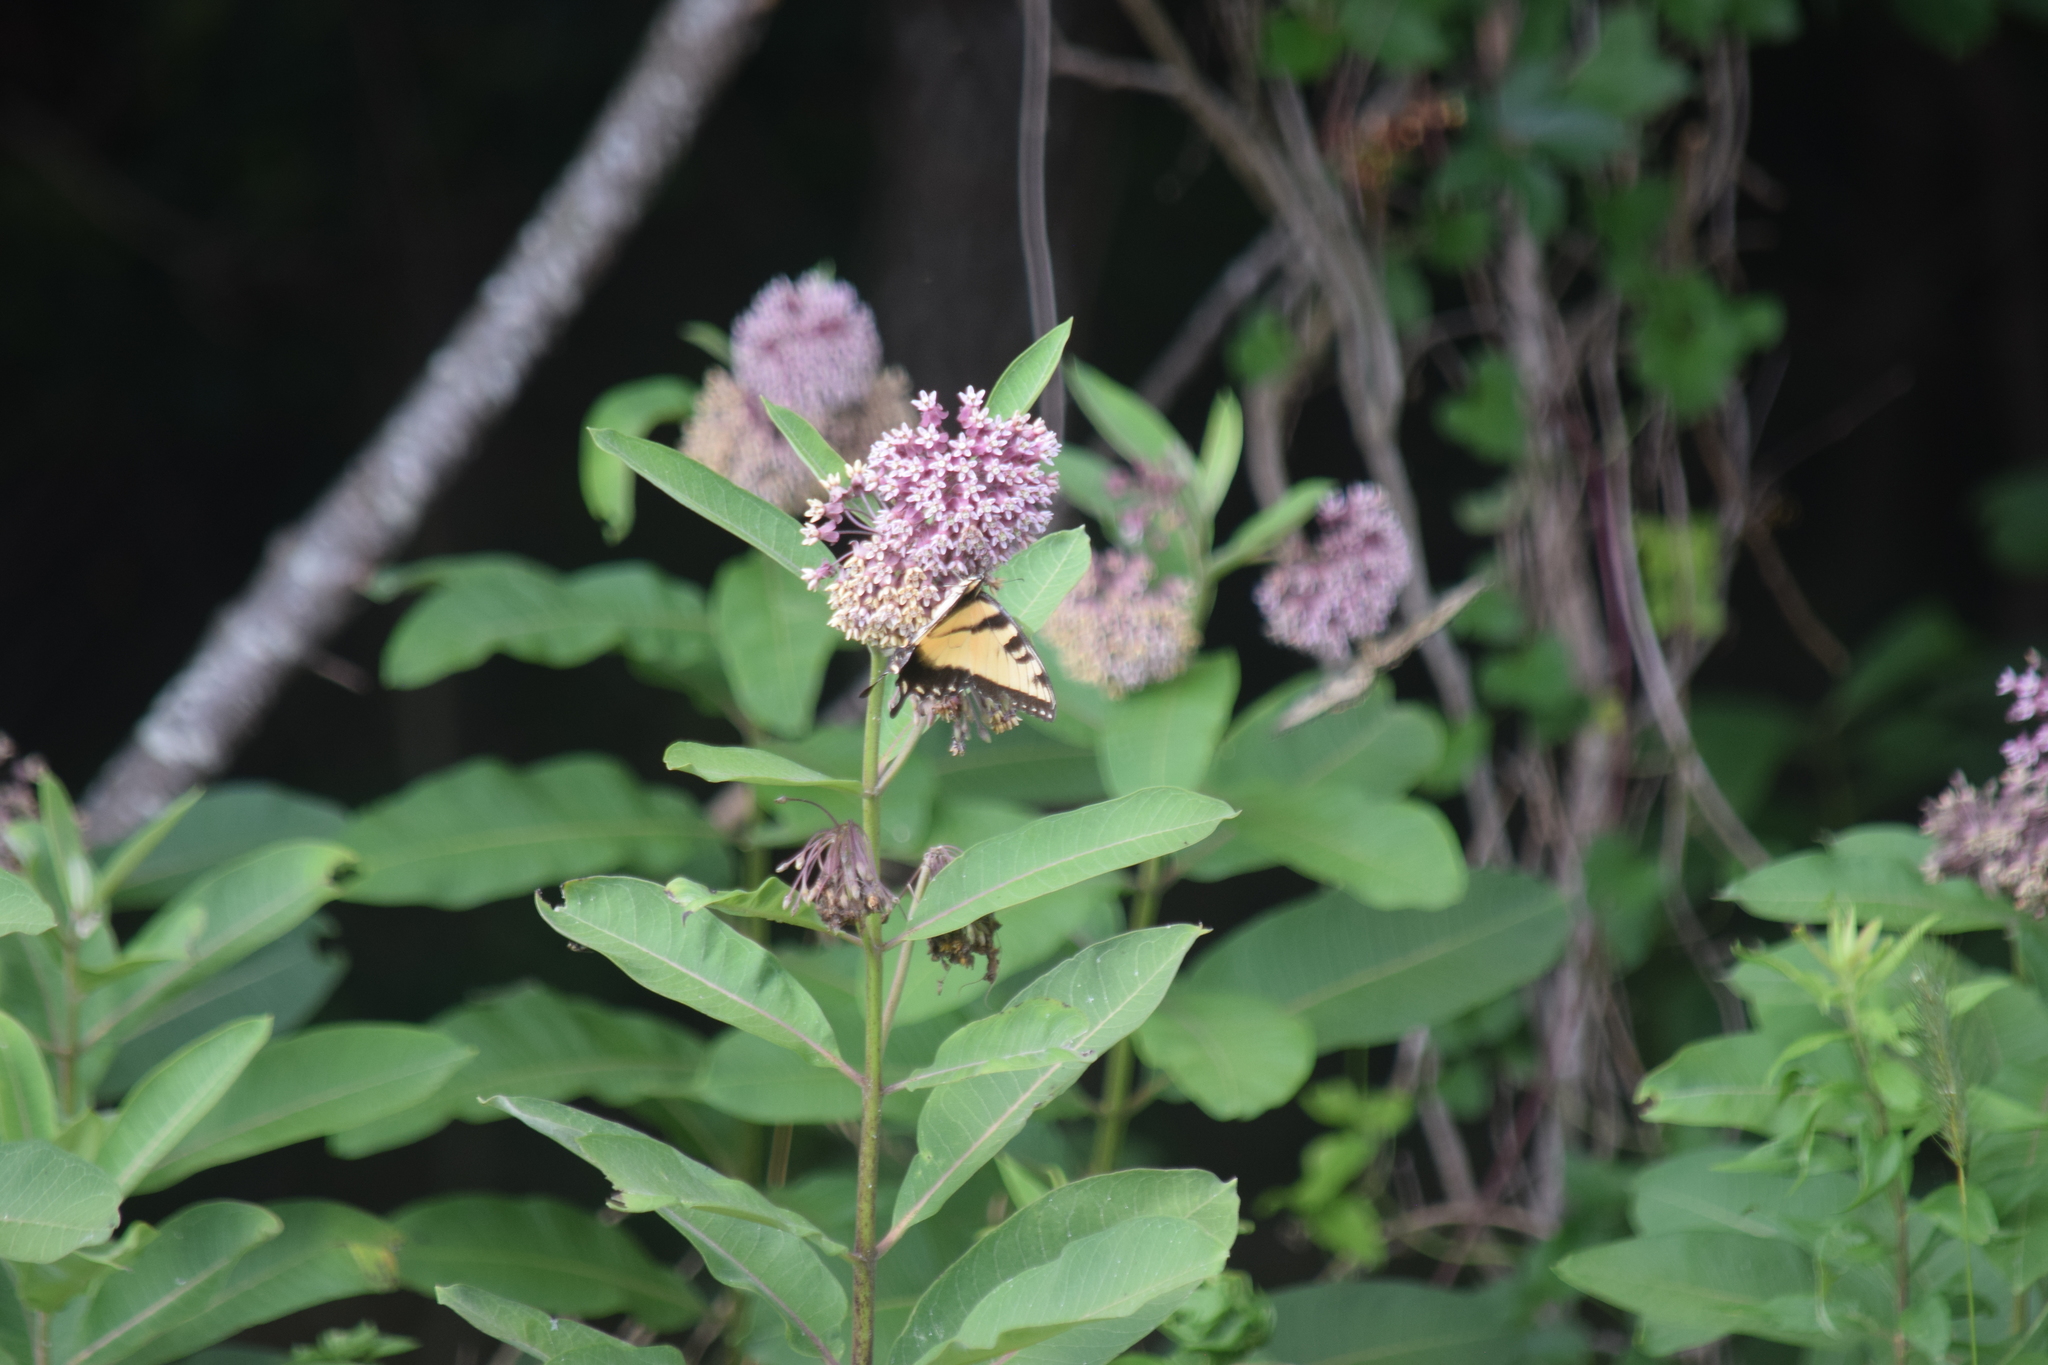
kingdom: Animalia
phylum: Arthropoda
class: Insecta
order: Lepidoptera
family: Papilionidae
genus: Papilio
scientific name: Papilio glaucus
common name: Tiger swallowtail
